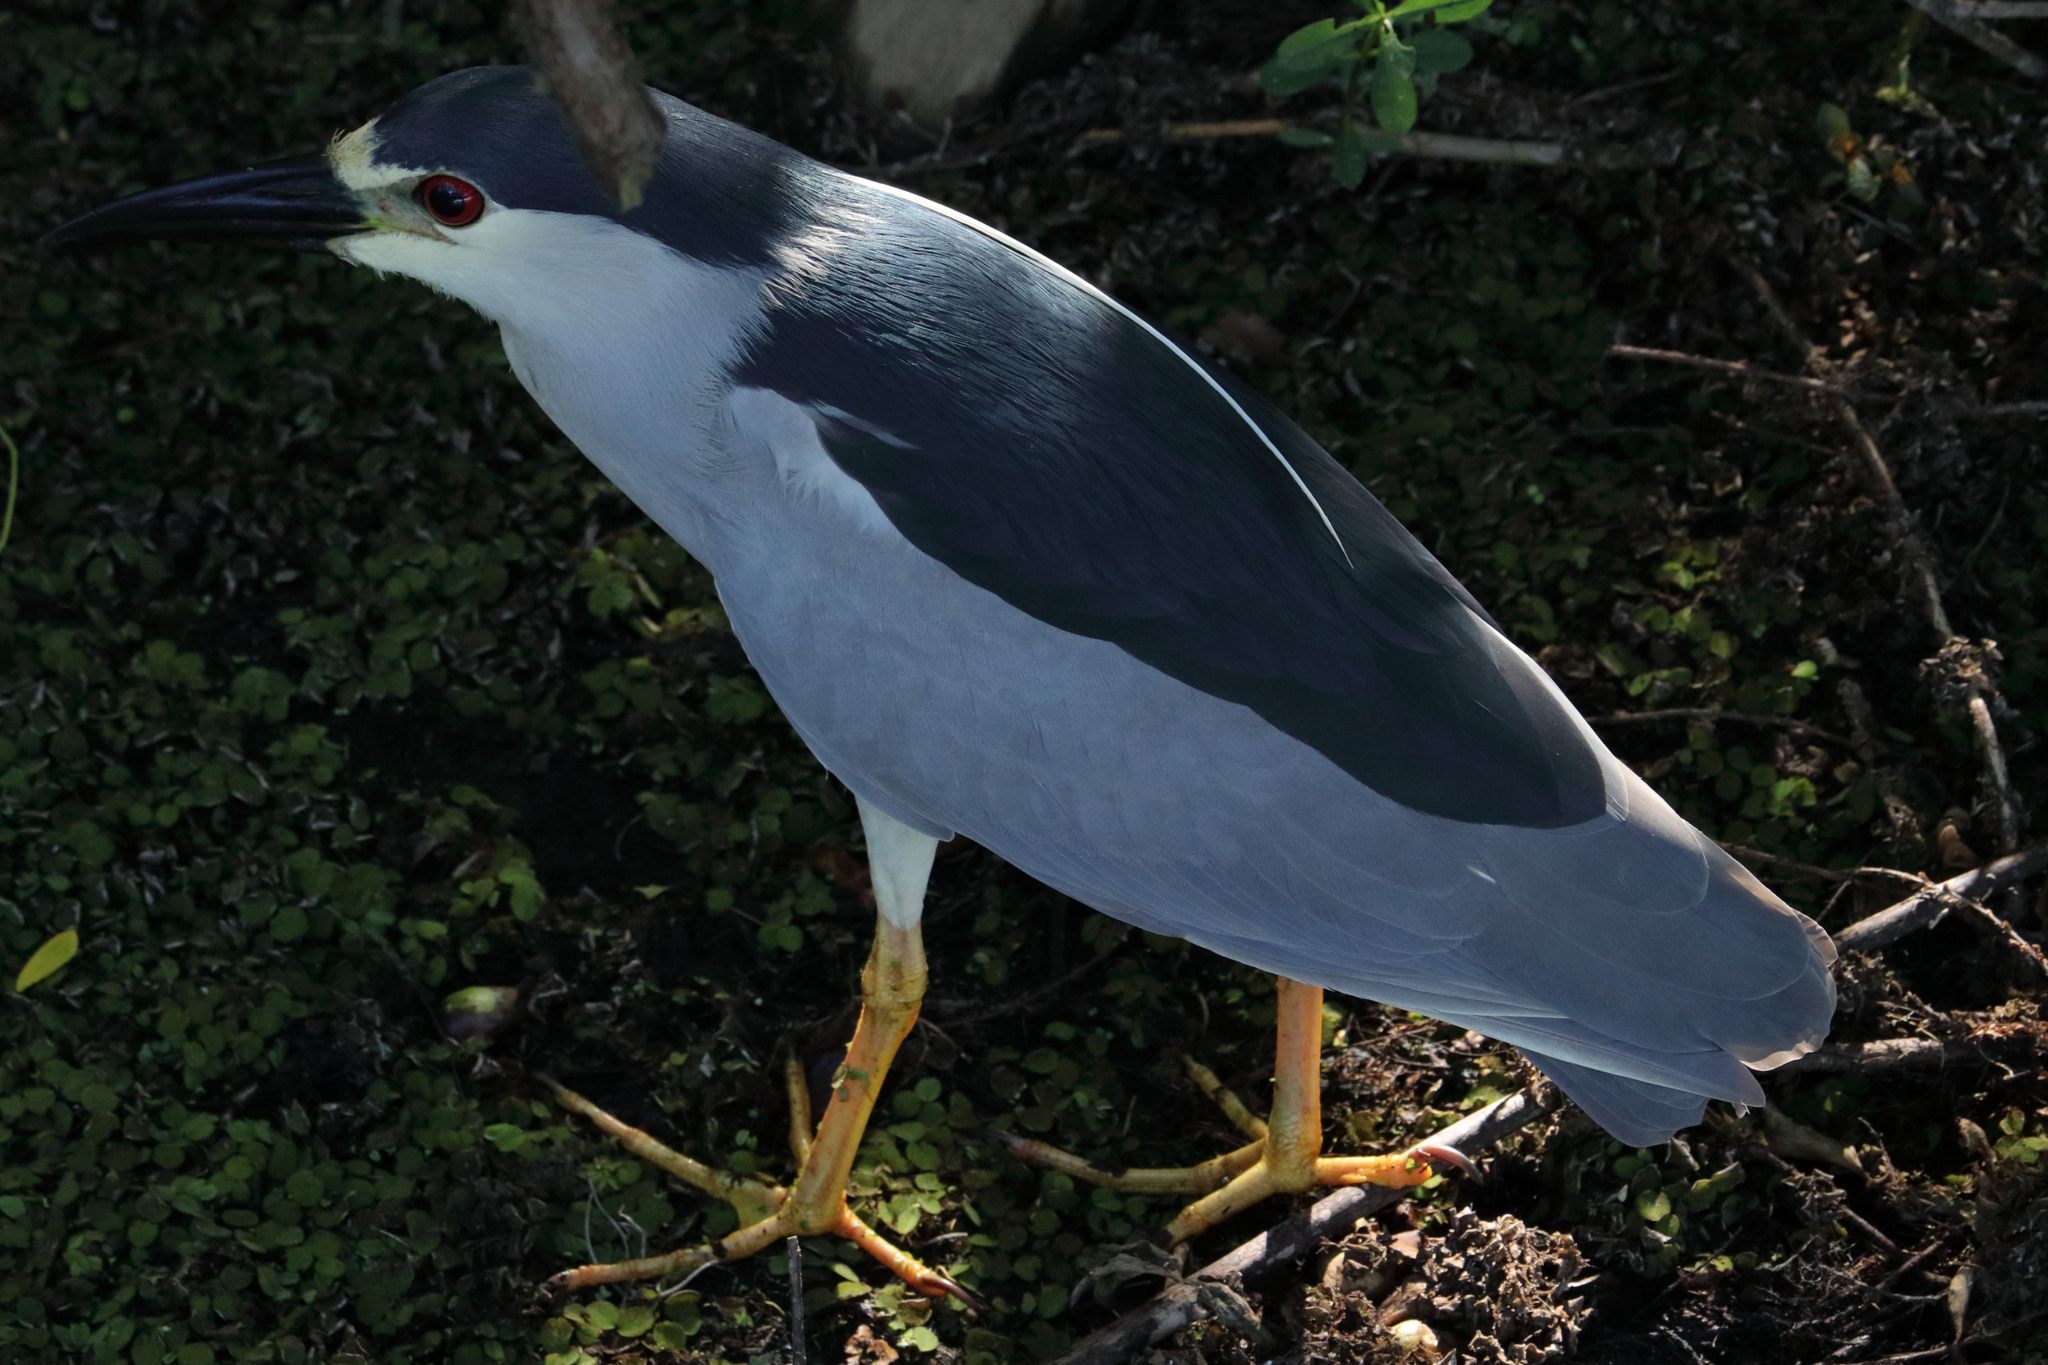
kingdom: Animalia
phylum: Chordata
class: Aves
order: Pelecaniformes
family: Ardeidae
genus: Nycticorax
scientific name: Nycticorax nycticorax
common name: Black-crowned night heron
